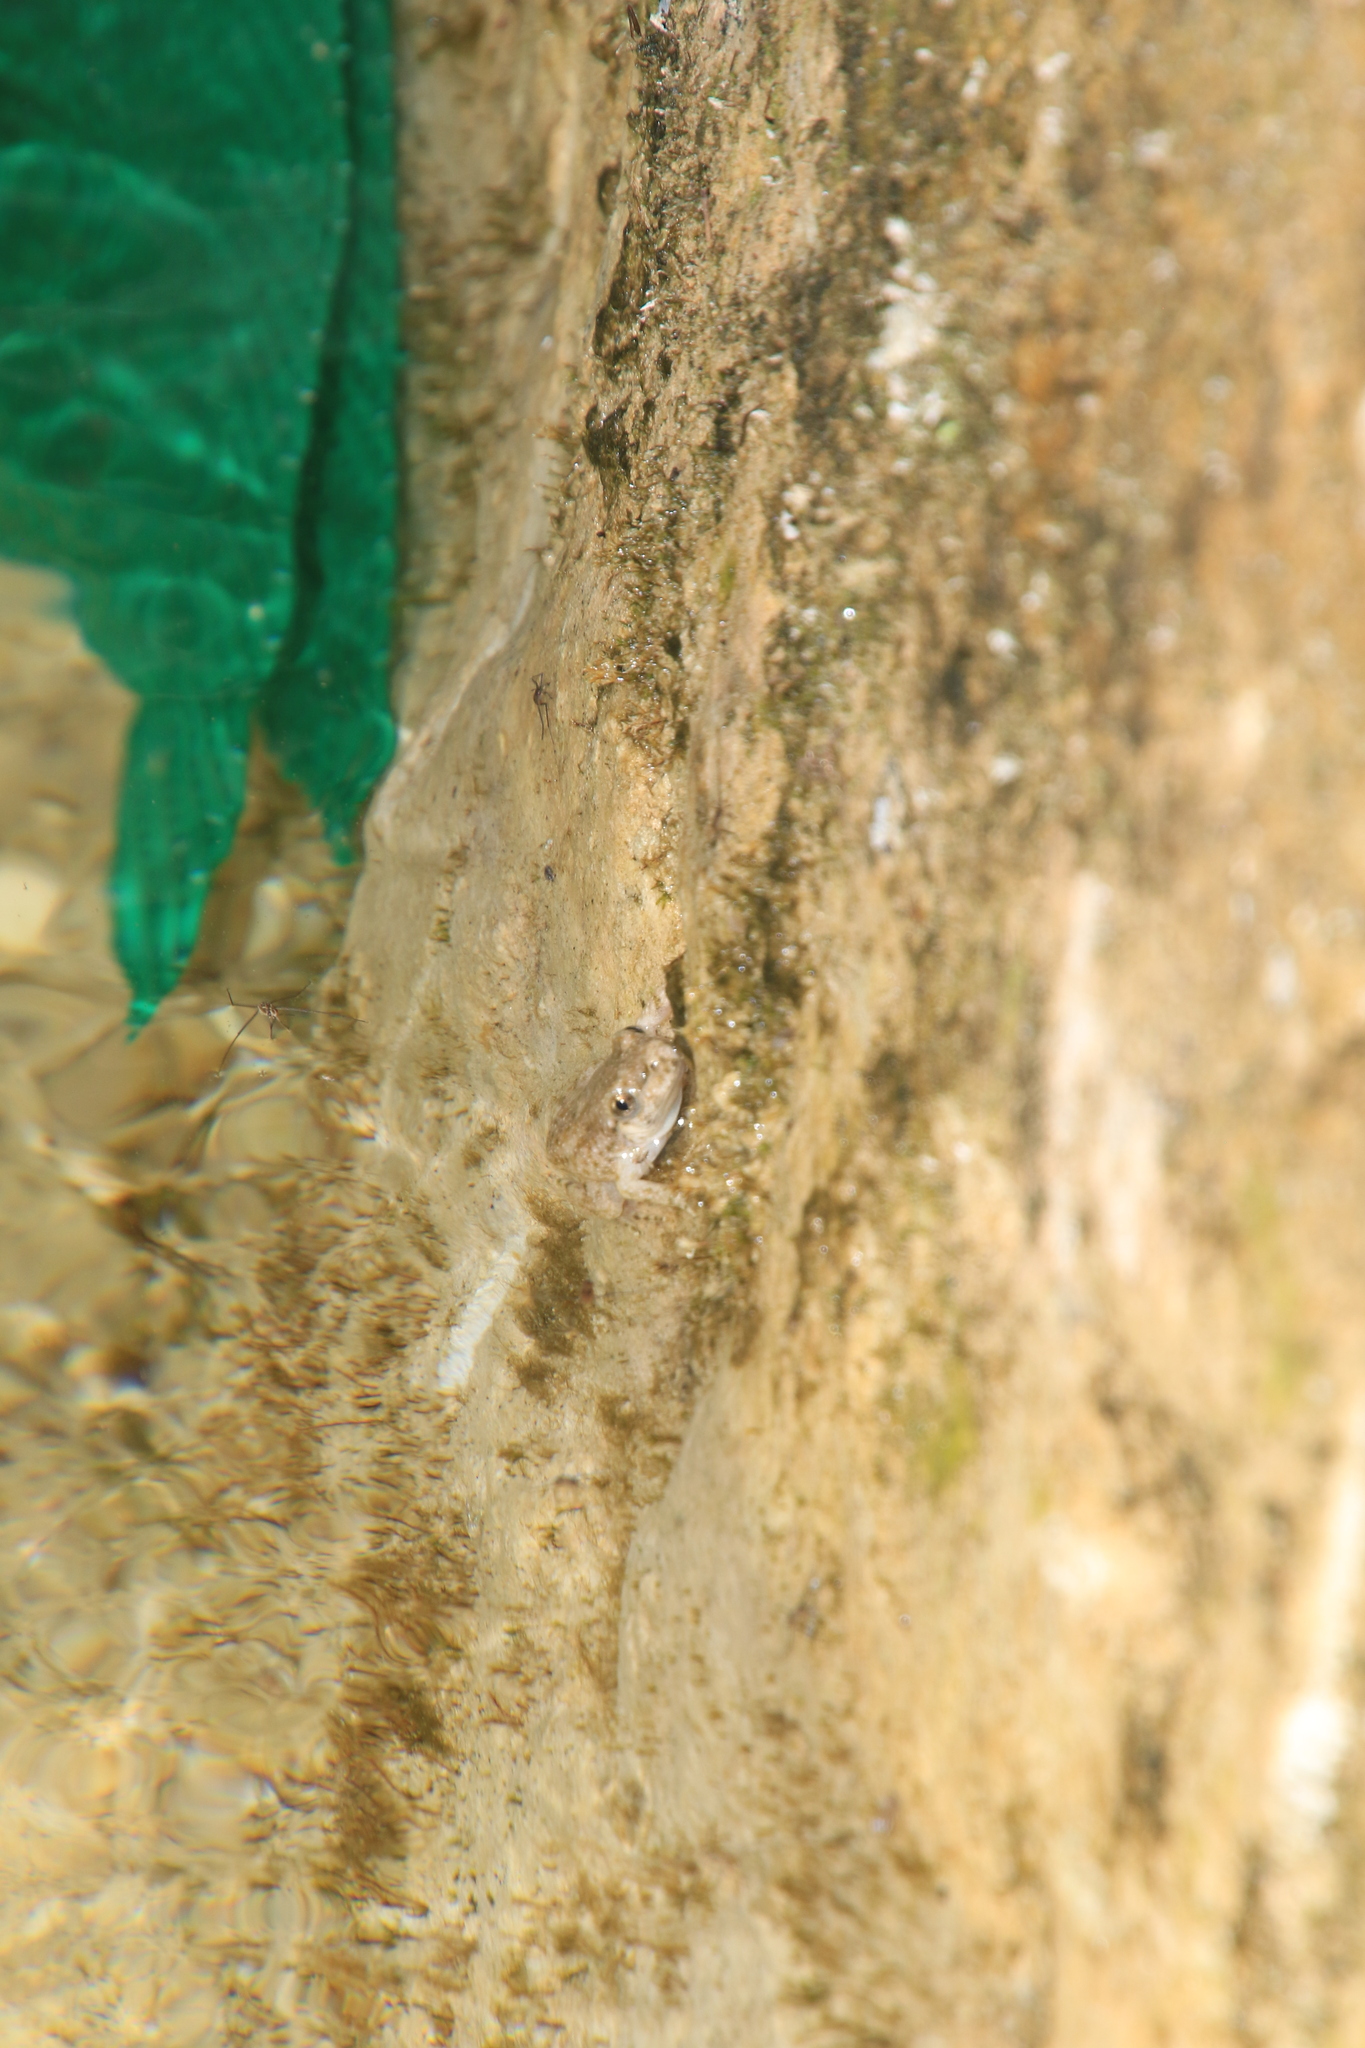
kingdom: Animalia
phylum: Chordata
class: Amphibia
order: Anura
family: Alytidae
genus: Alytes
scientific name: Alytes dickhilleni
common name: Betic midwife toad
